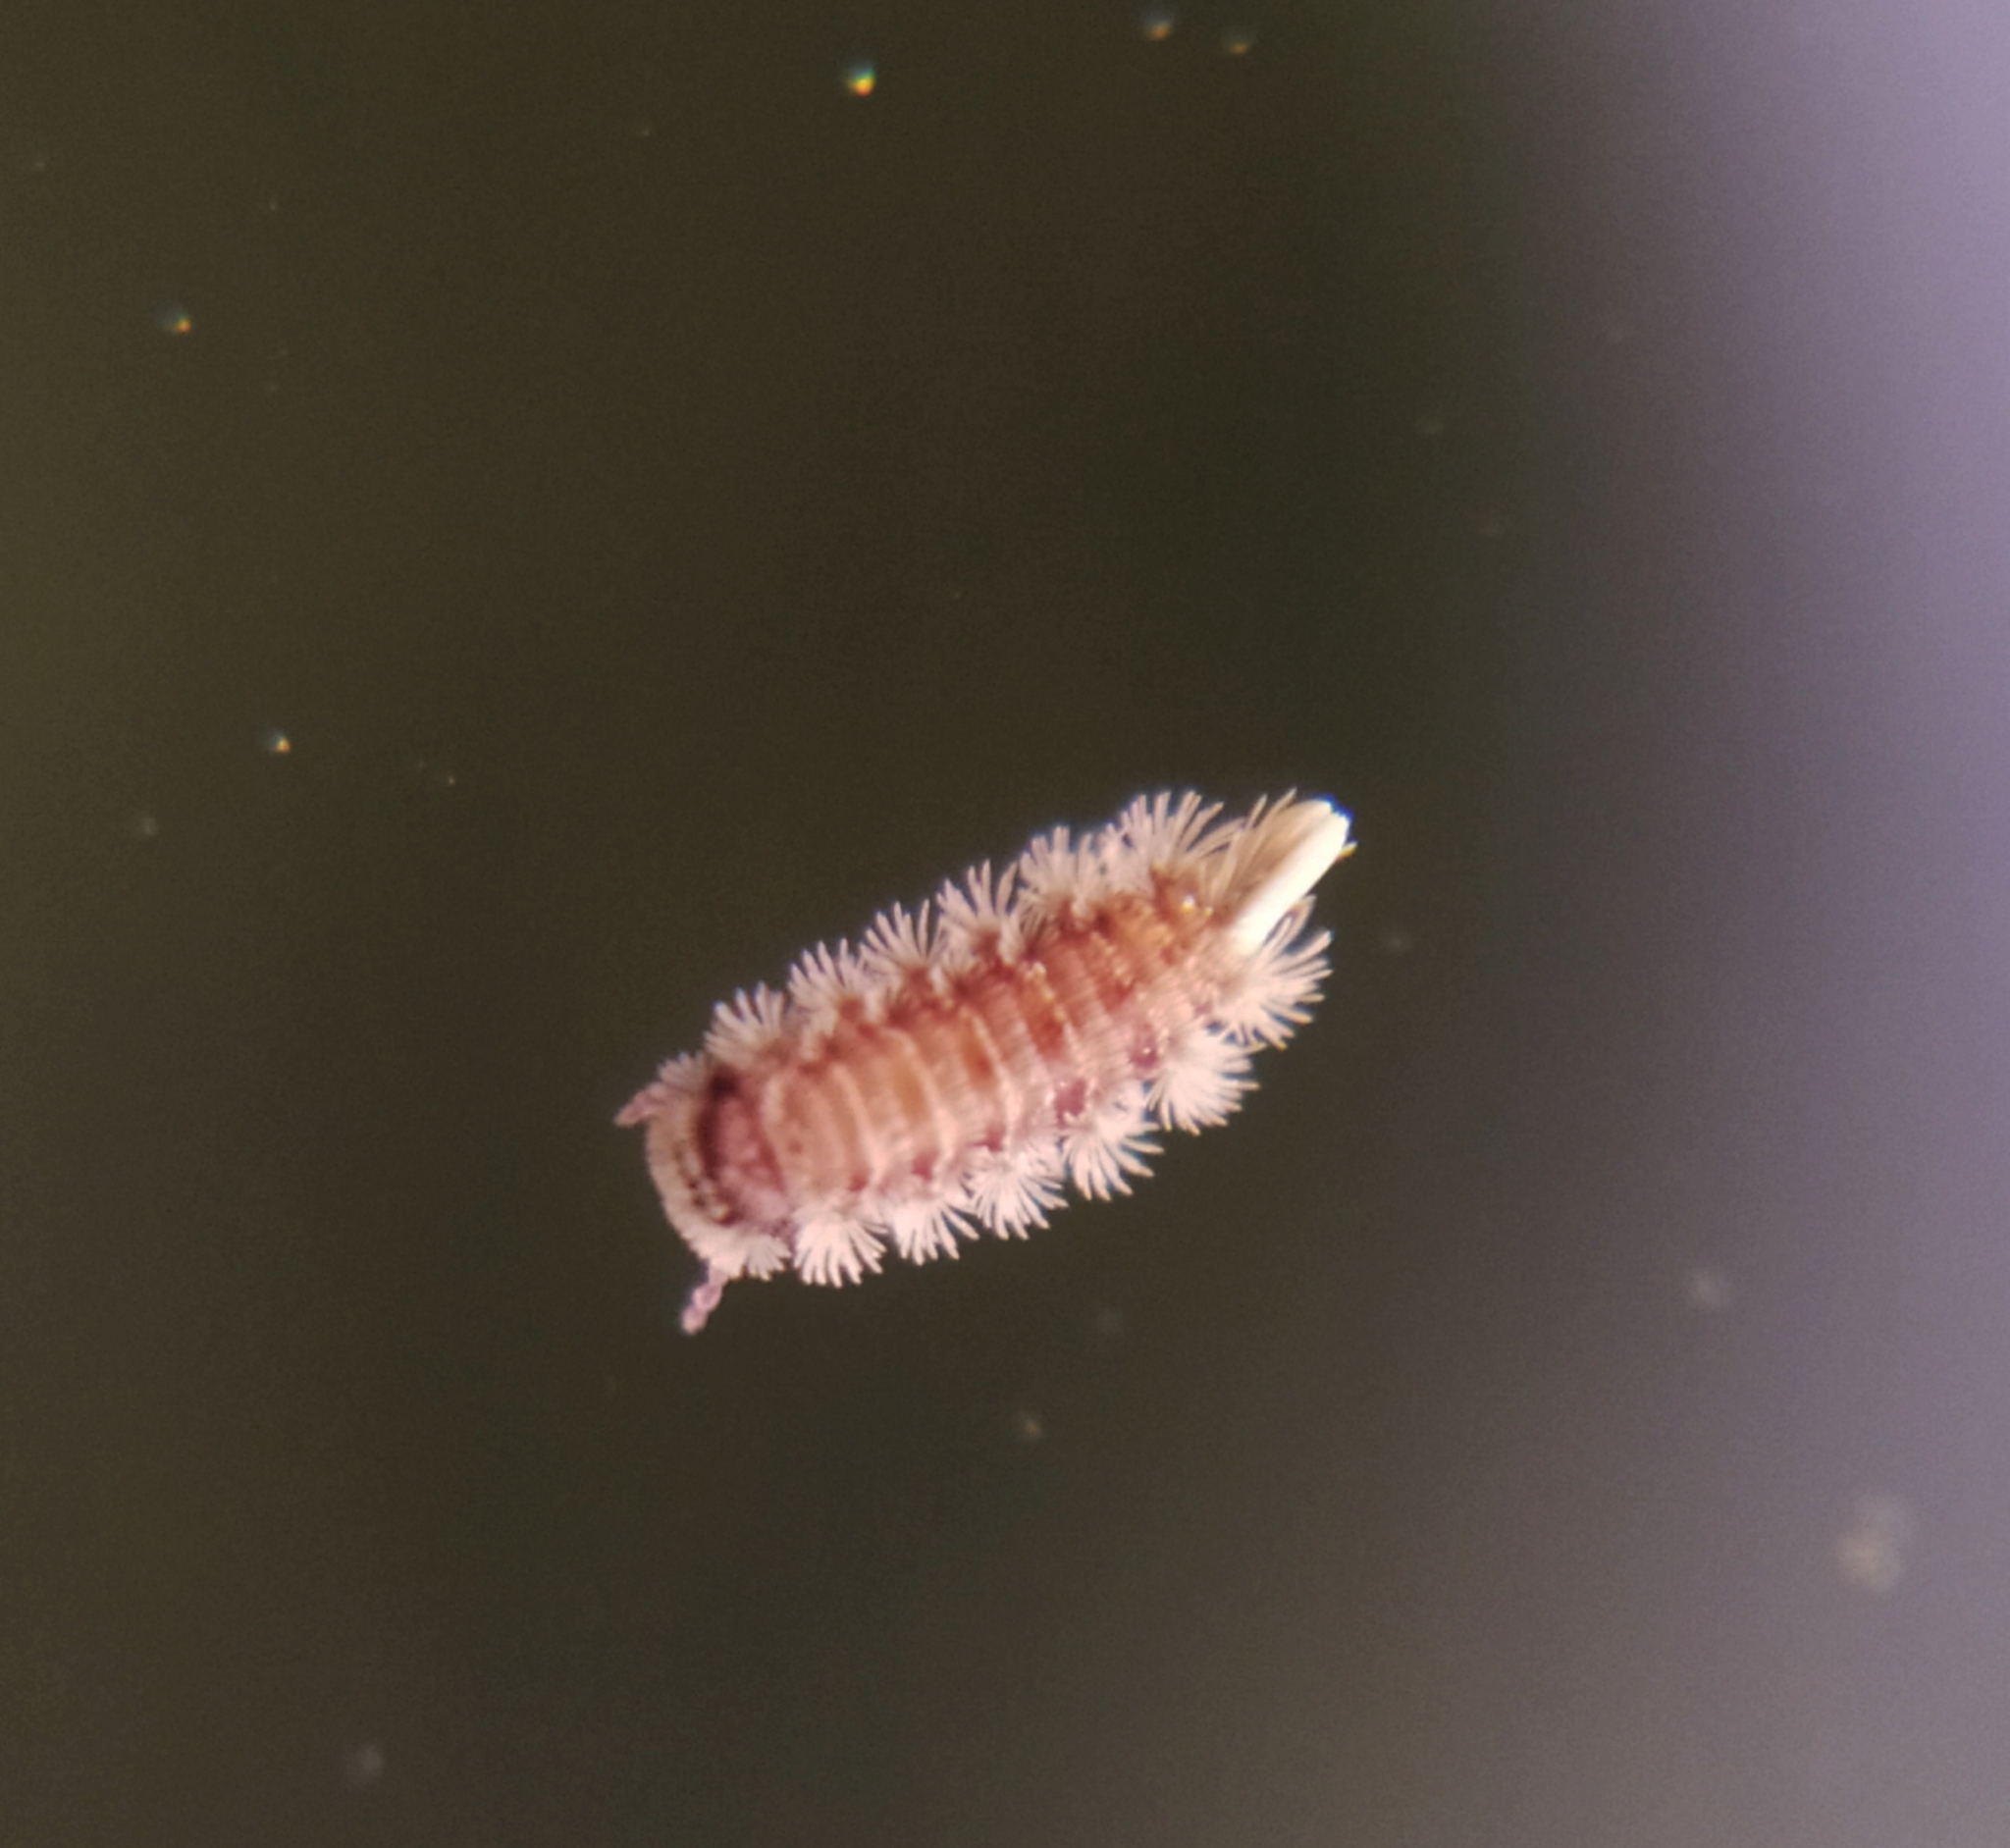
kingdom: Animalia
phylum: Arthropoda
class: Diplopoda
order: Polyxenida
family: Polyxenidae
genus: Polyxenus
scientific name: Polyxenus lagurus
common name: Bristly millipede
